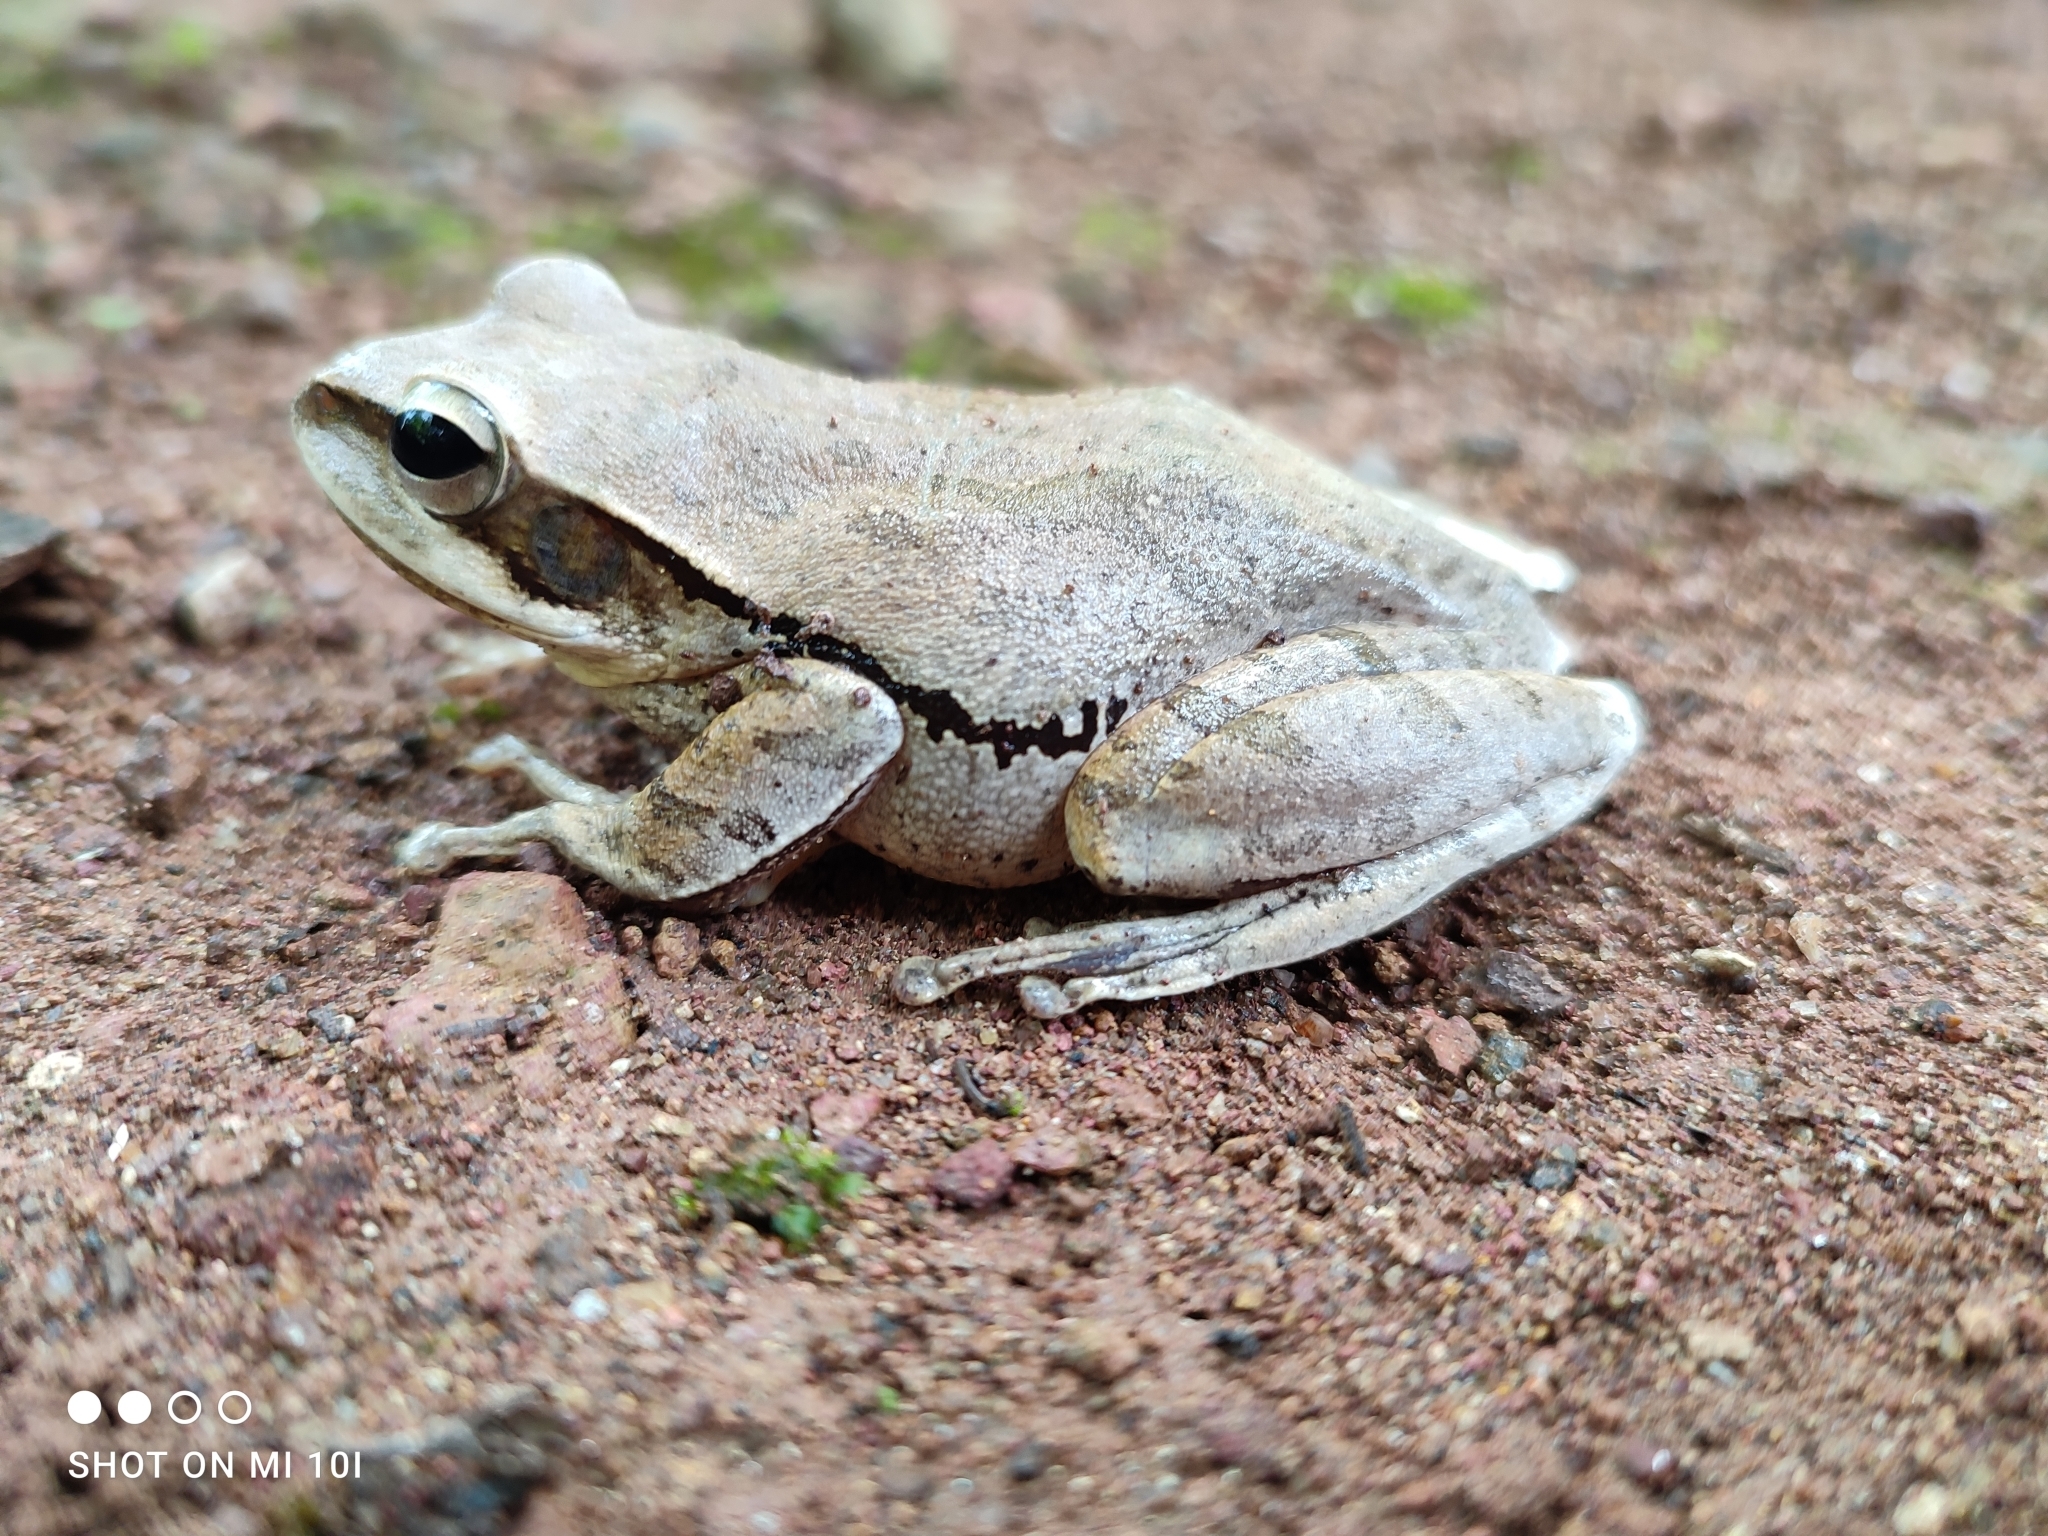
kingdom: Animalia
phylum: Chordata
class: Amphibia
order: Anura
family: Rhacophoridae
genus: Polypedates
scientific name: Polypedates maculatus
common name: Himalayan tree frog
